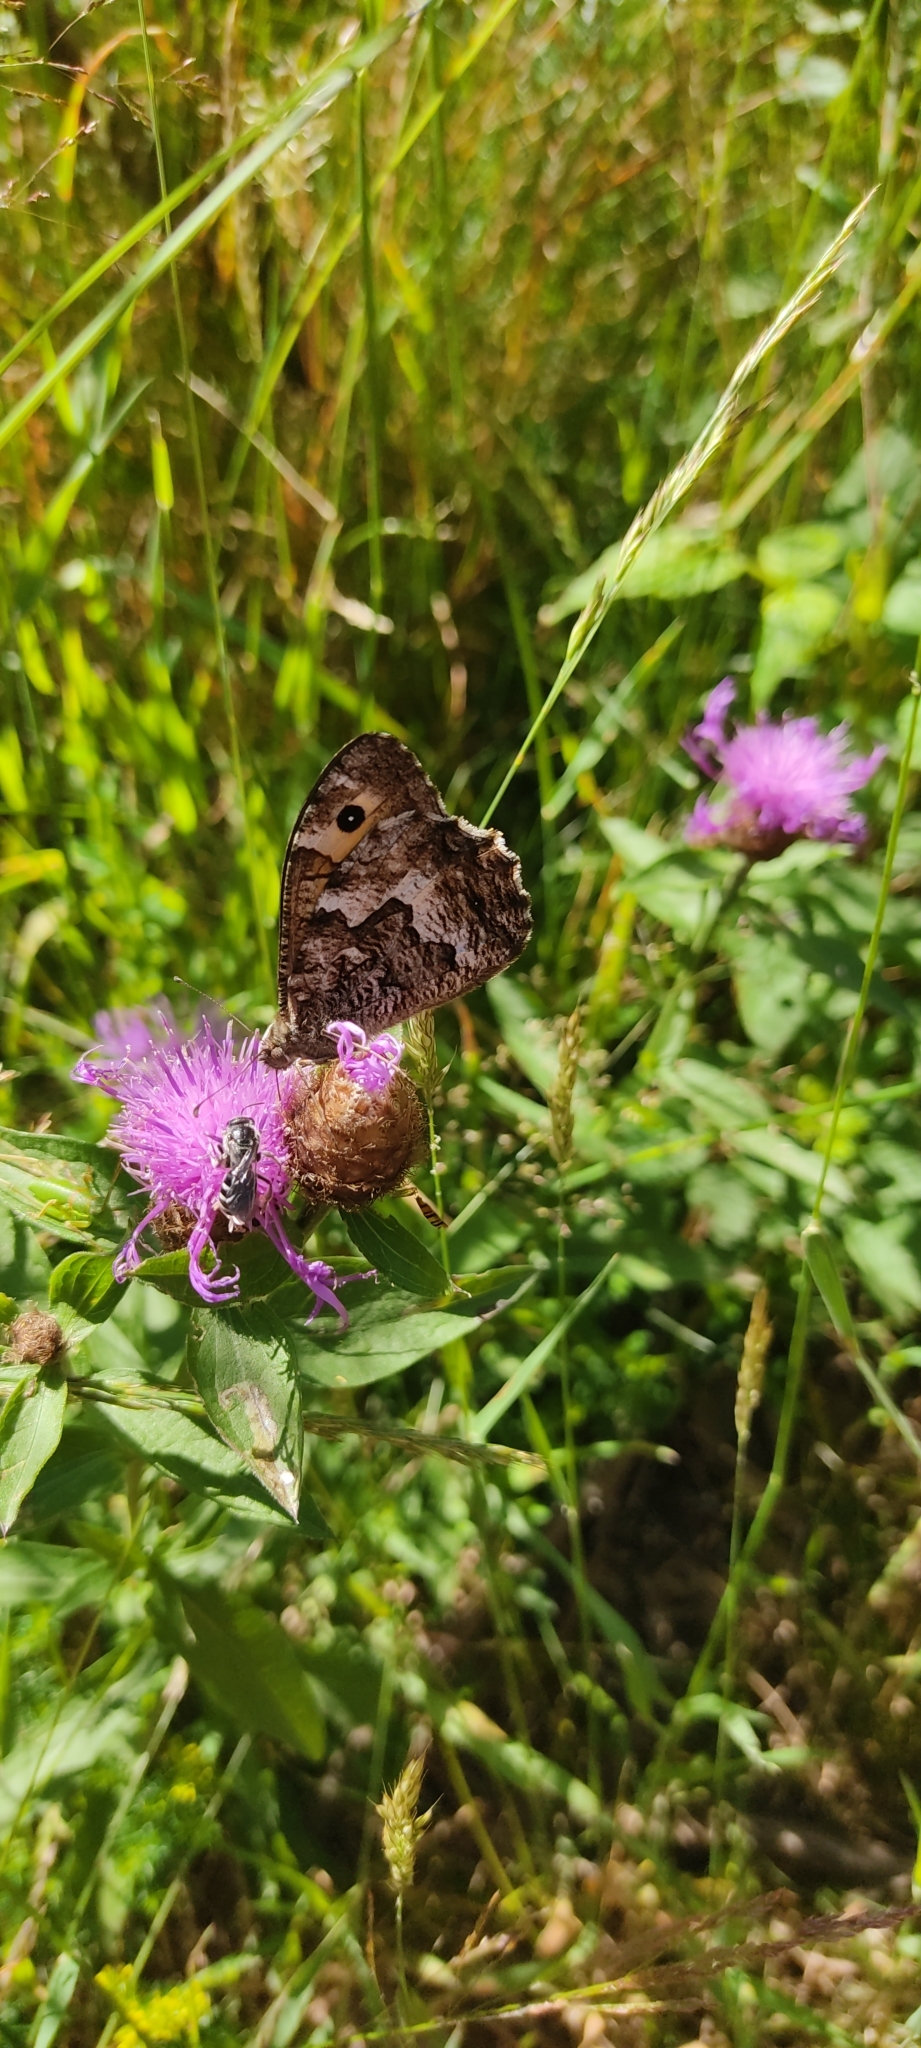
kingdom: Animalia
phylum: Arthropoda
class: Insecta
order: Lepidoptera
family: Nymphalidae
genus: Hipparchia
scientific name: Hipparchia semele
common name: Grayling
